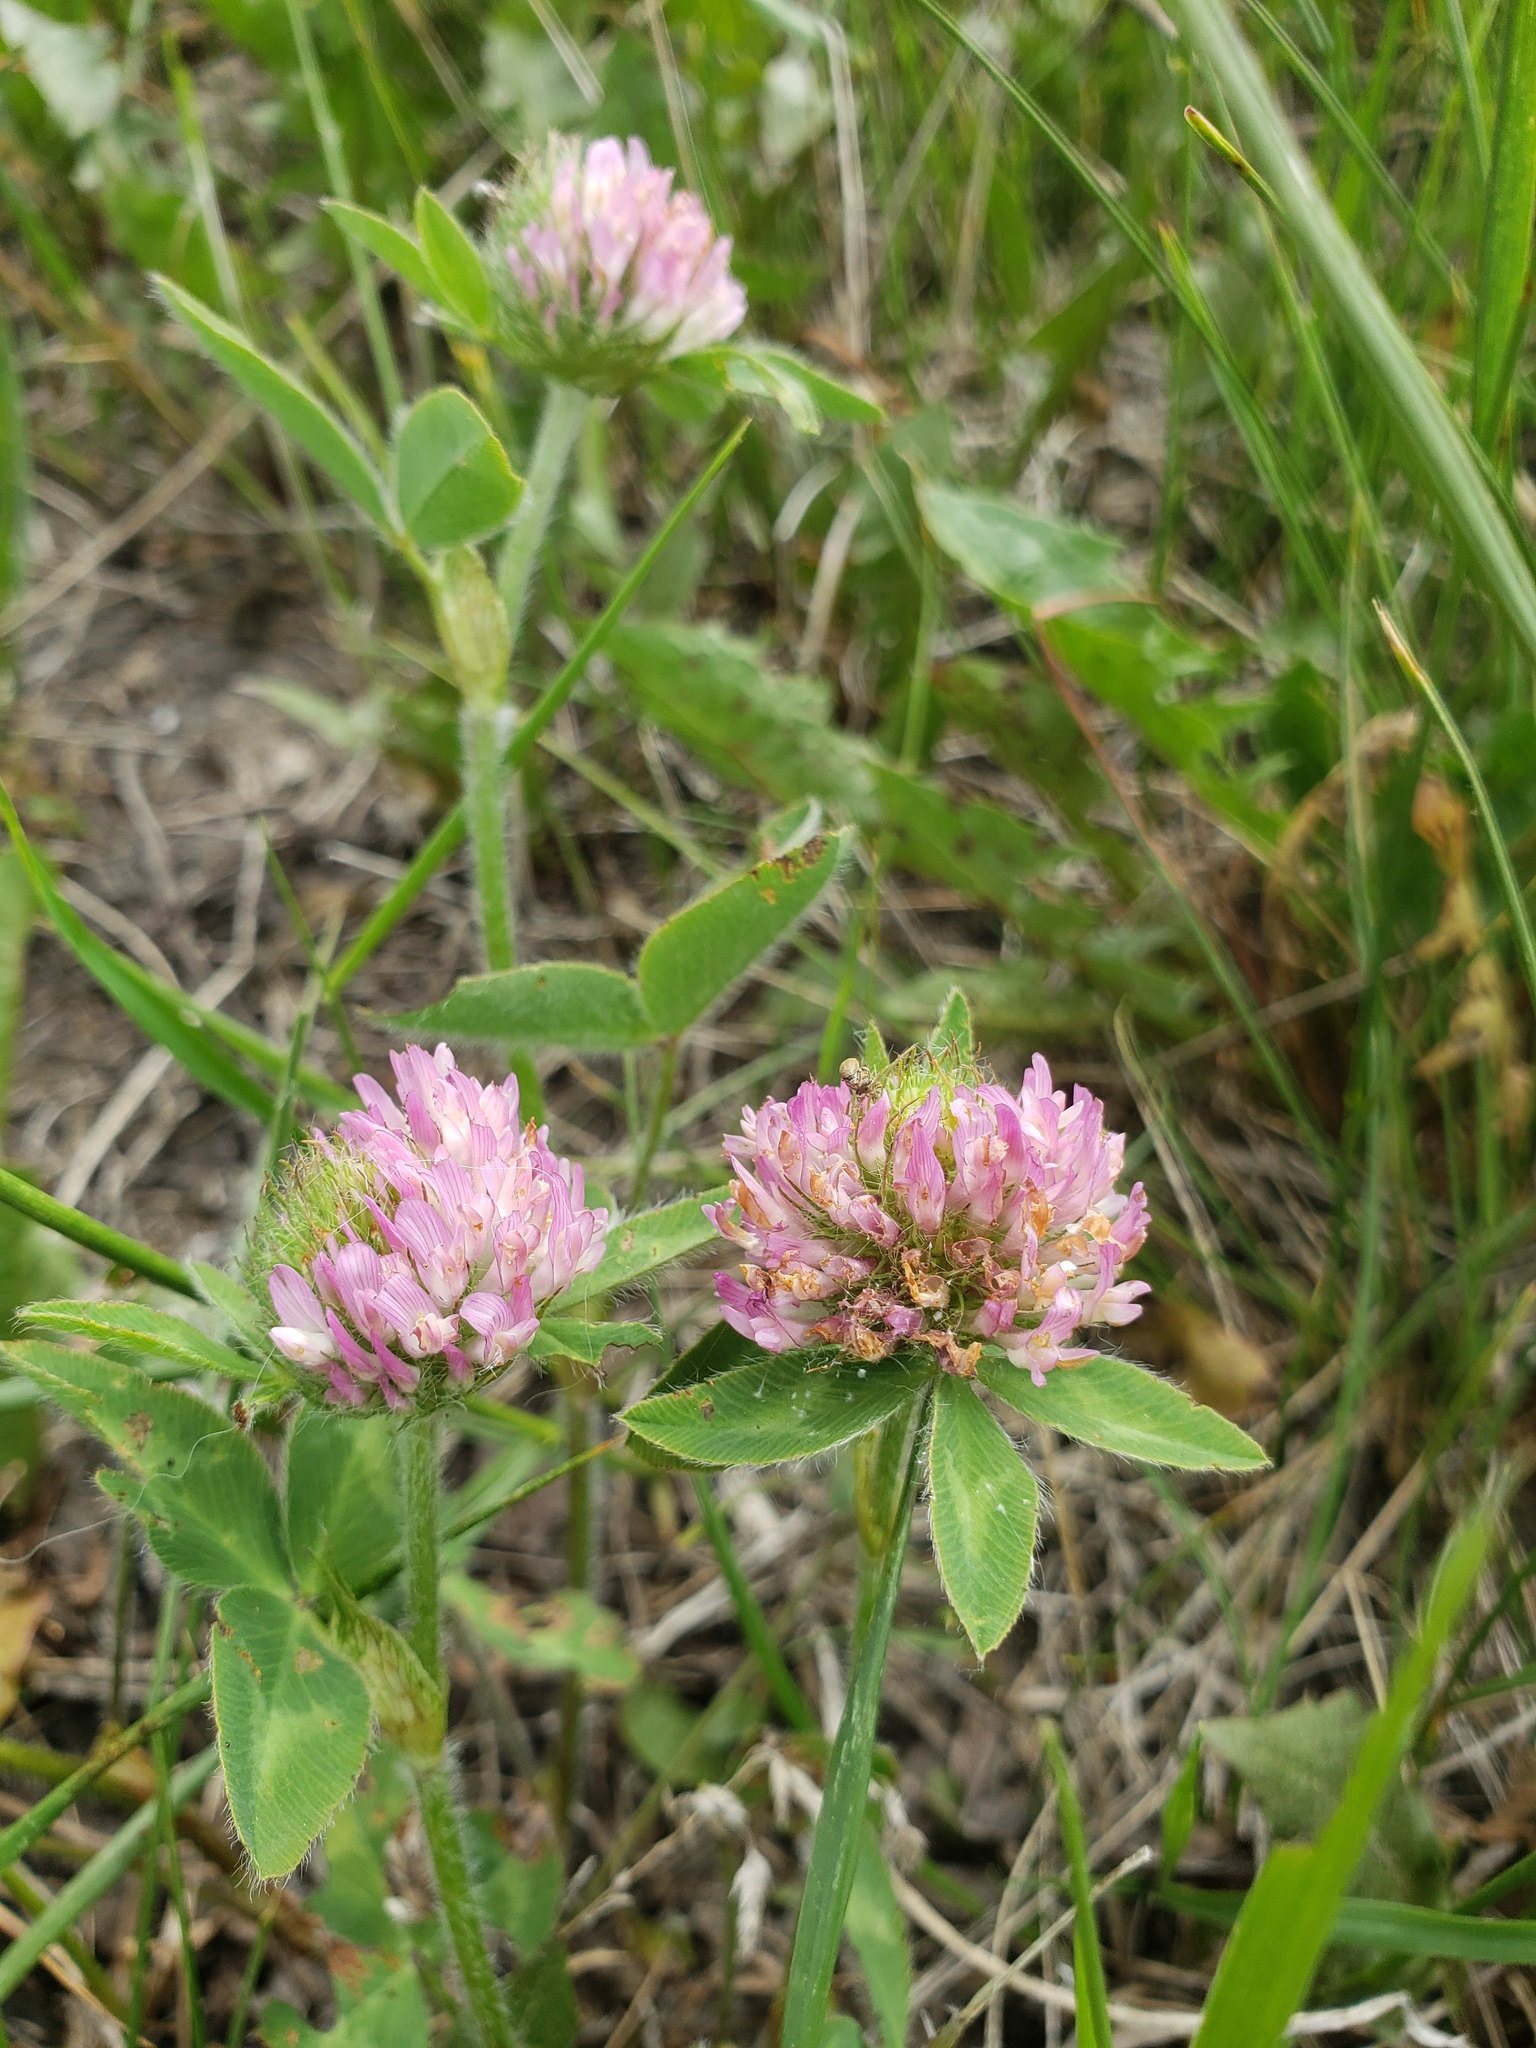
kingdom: Plantae
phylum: Tracheophyta
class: Magnoliopsida
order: Fabales
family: Fabaceae
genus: Trifolium
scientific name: Trifolium pratense
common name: Red clover
